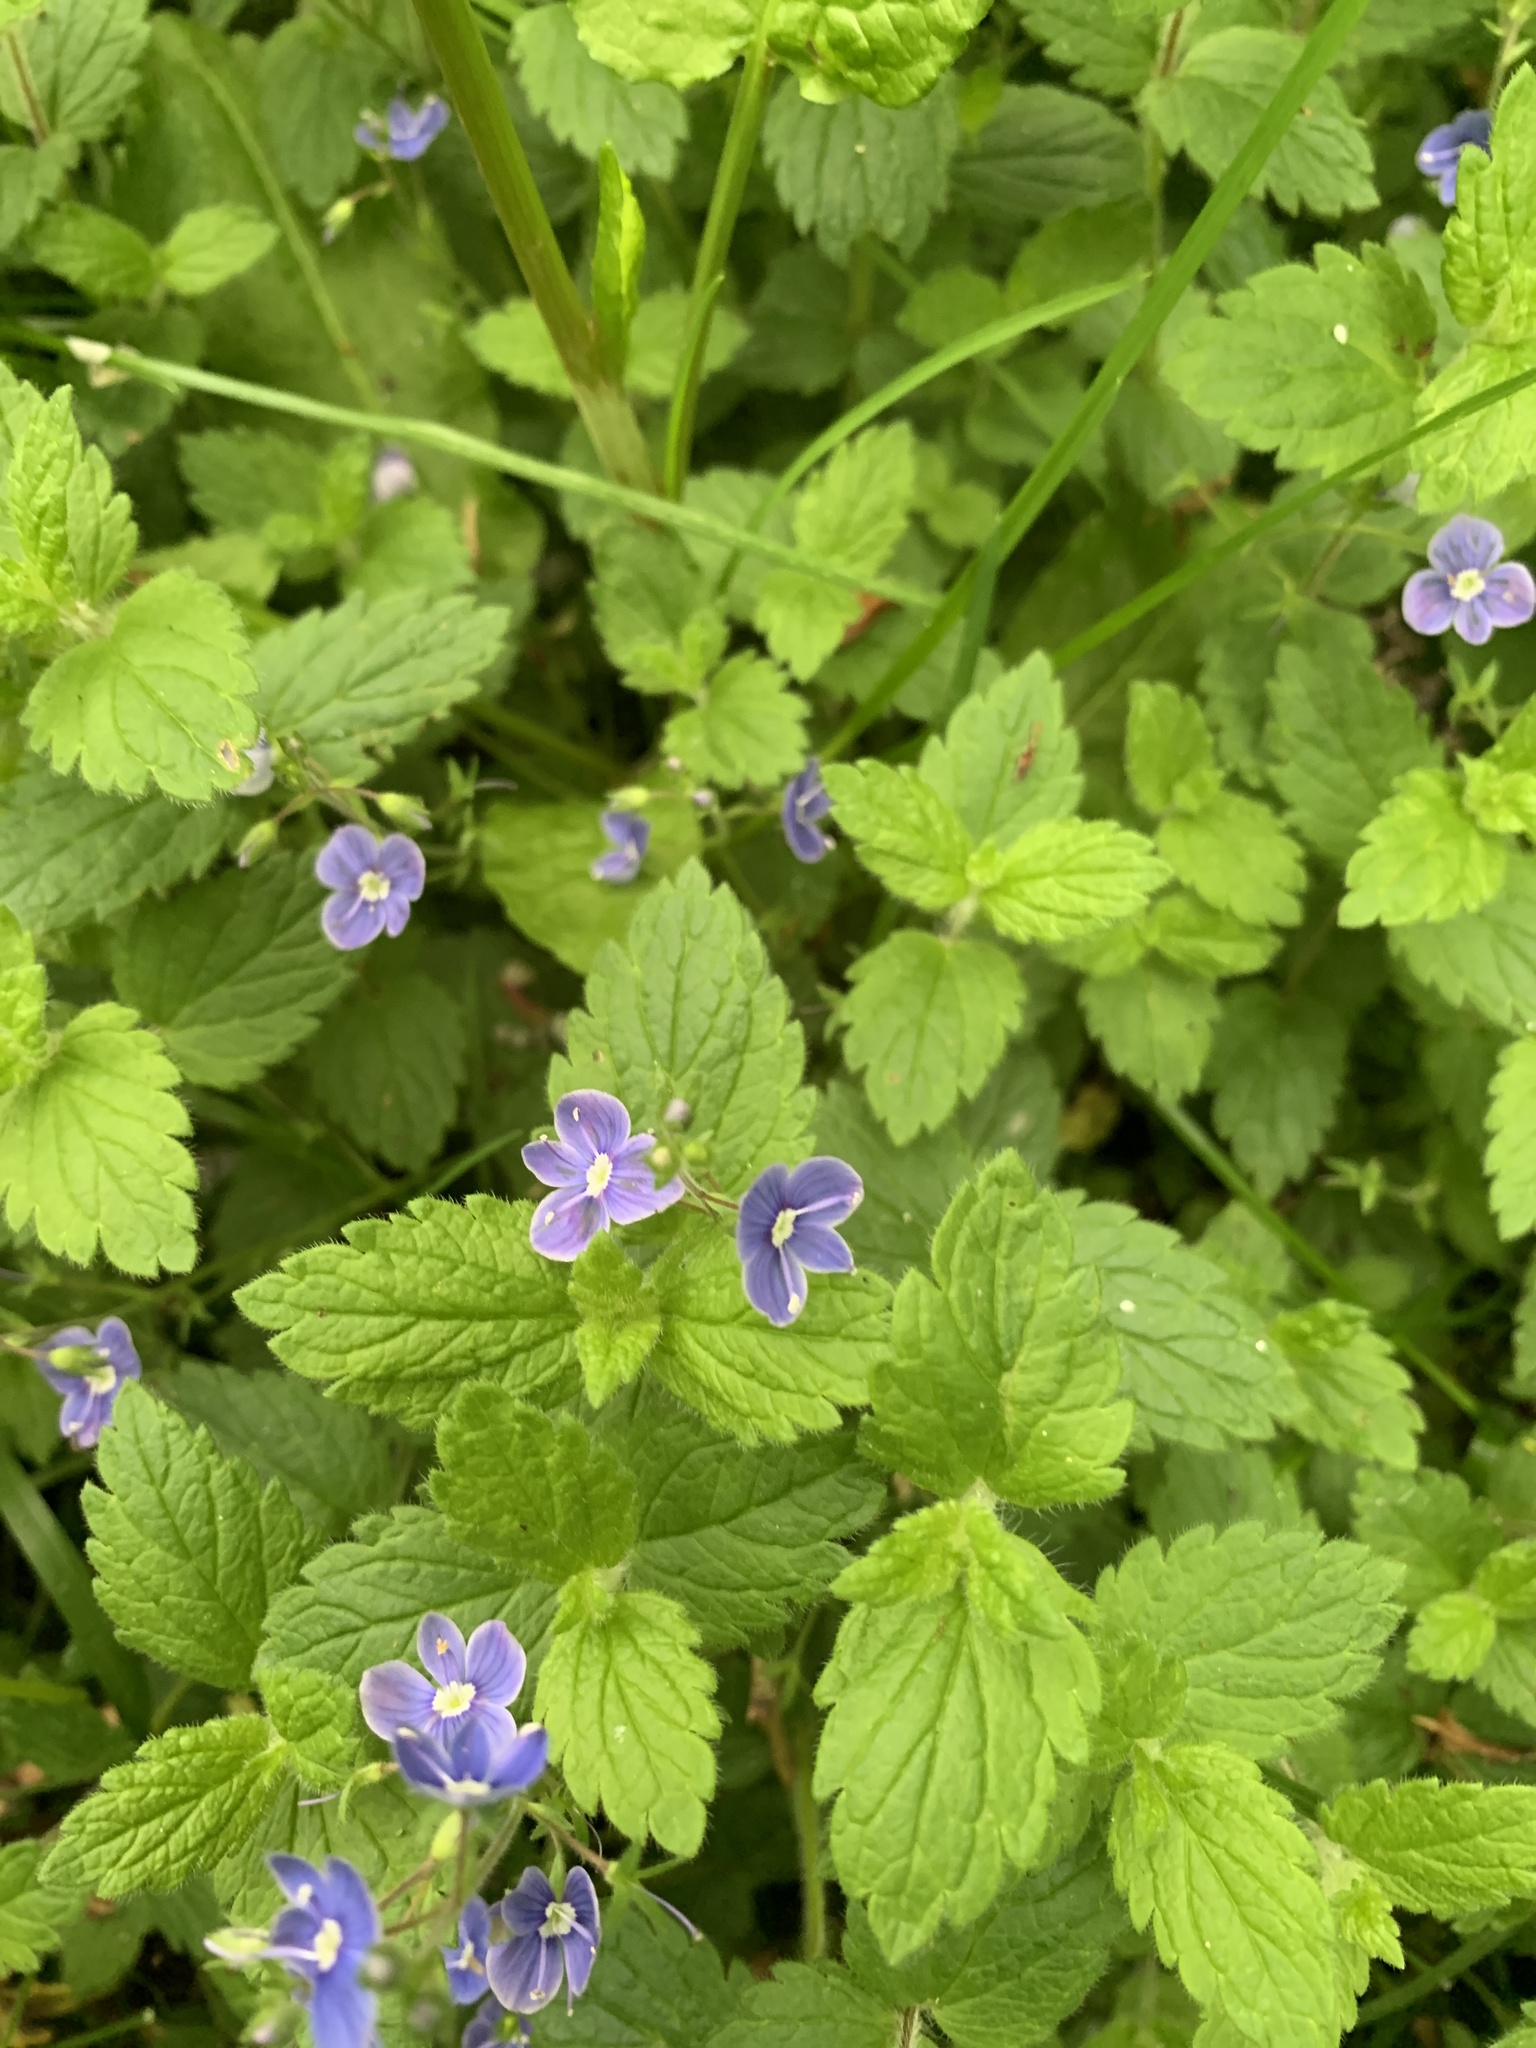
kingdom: Plantae
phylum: Tracheophyta
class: Magnoliopsida
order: Lamiales
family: Plantaginaceae
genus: Veronica
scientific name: Veronica chamaedrys
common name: Germander speedwell
